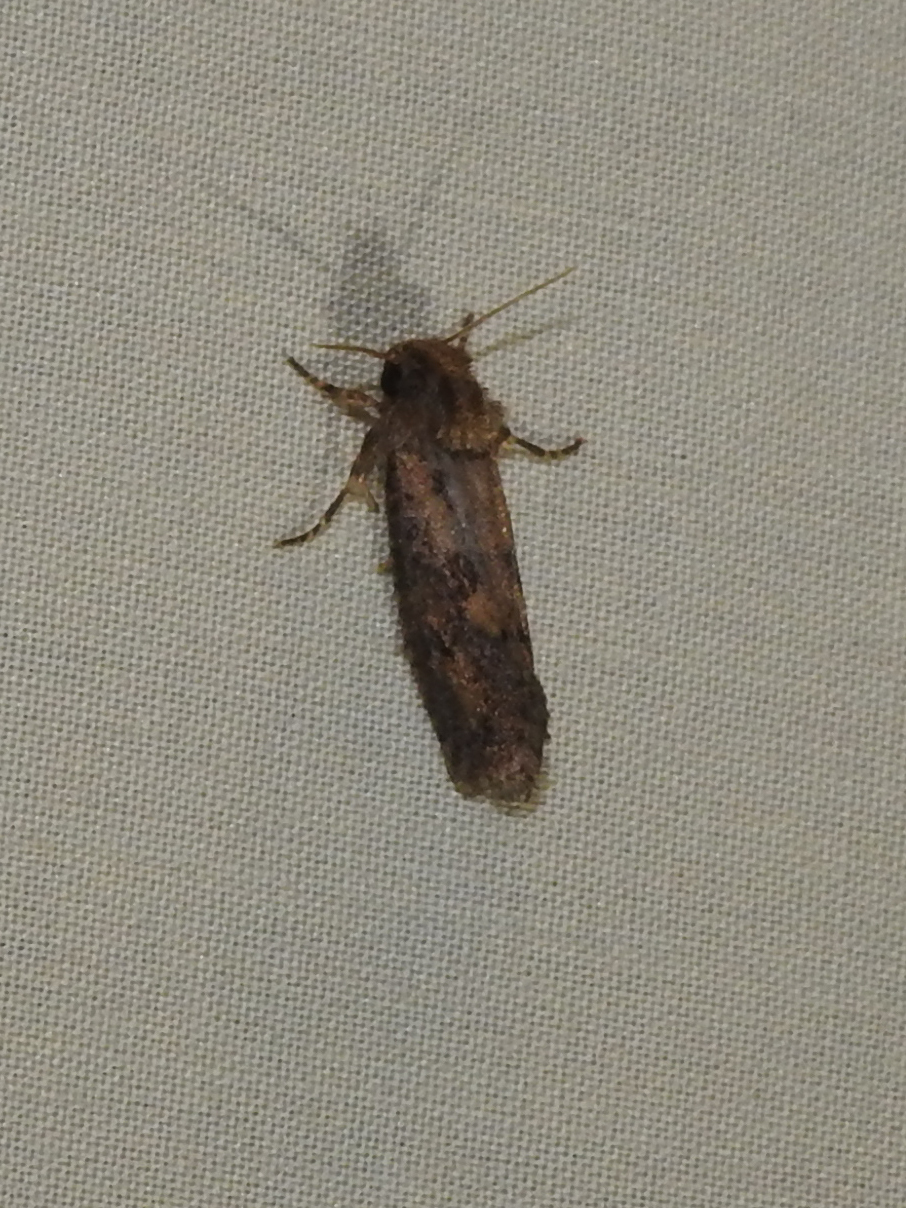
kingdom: Animalia
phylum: Arthropoda
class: Insecta
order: Lepidoptera
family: Tineidae
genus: Acrolophus
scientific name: Acrolophus popeanella
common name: Clemens' grass tubeworm moth
